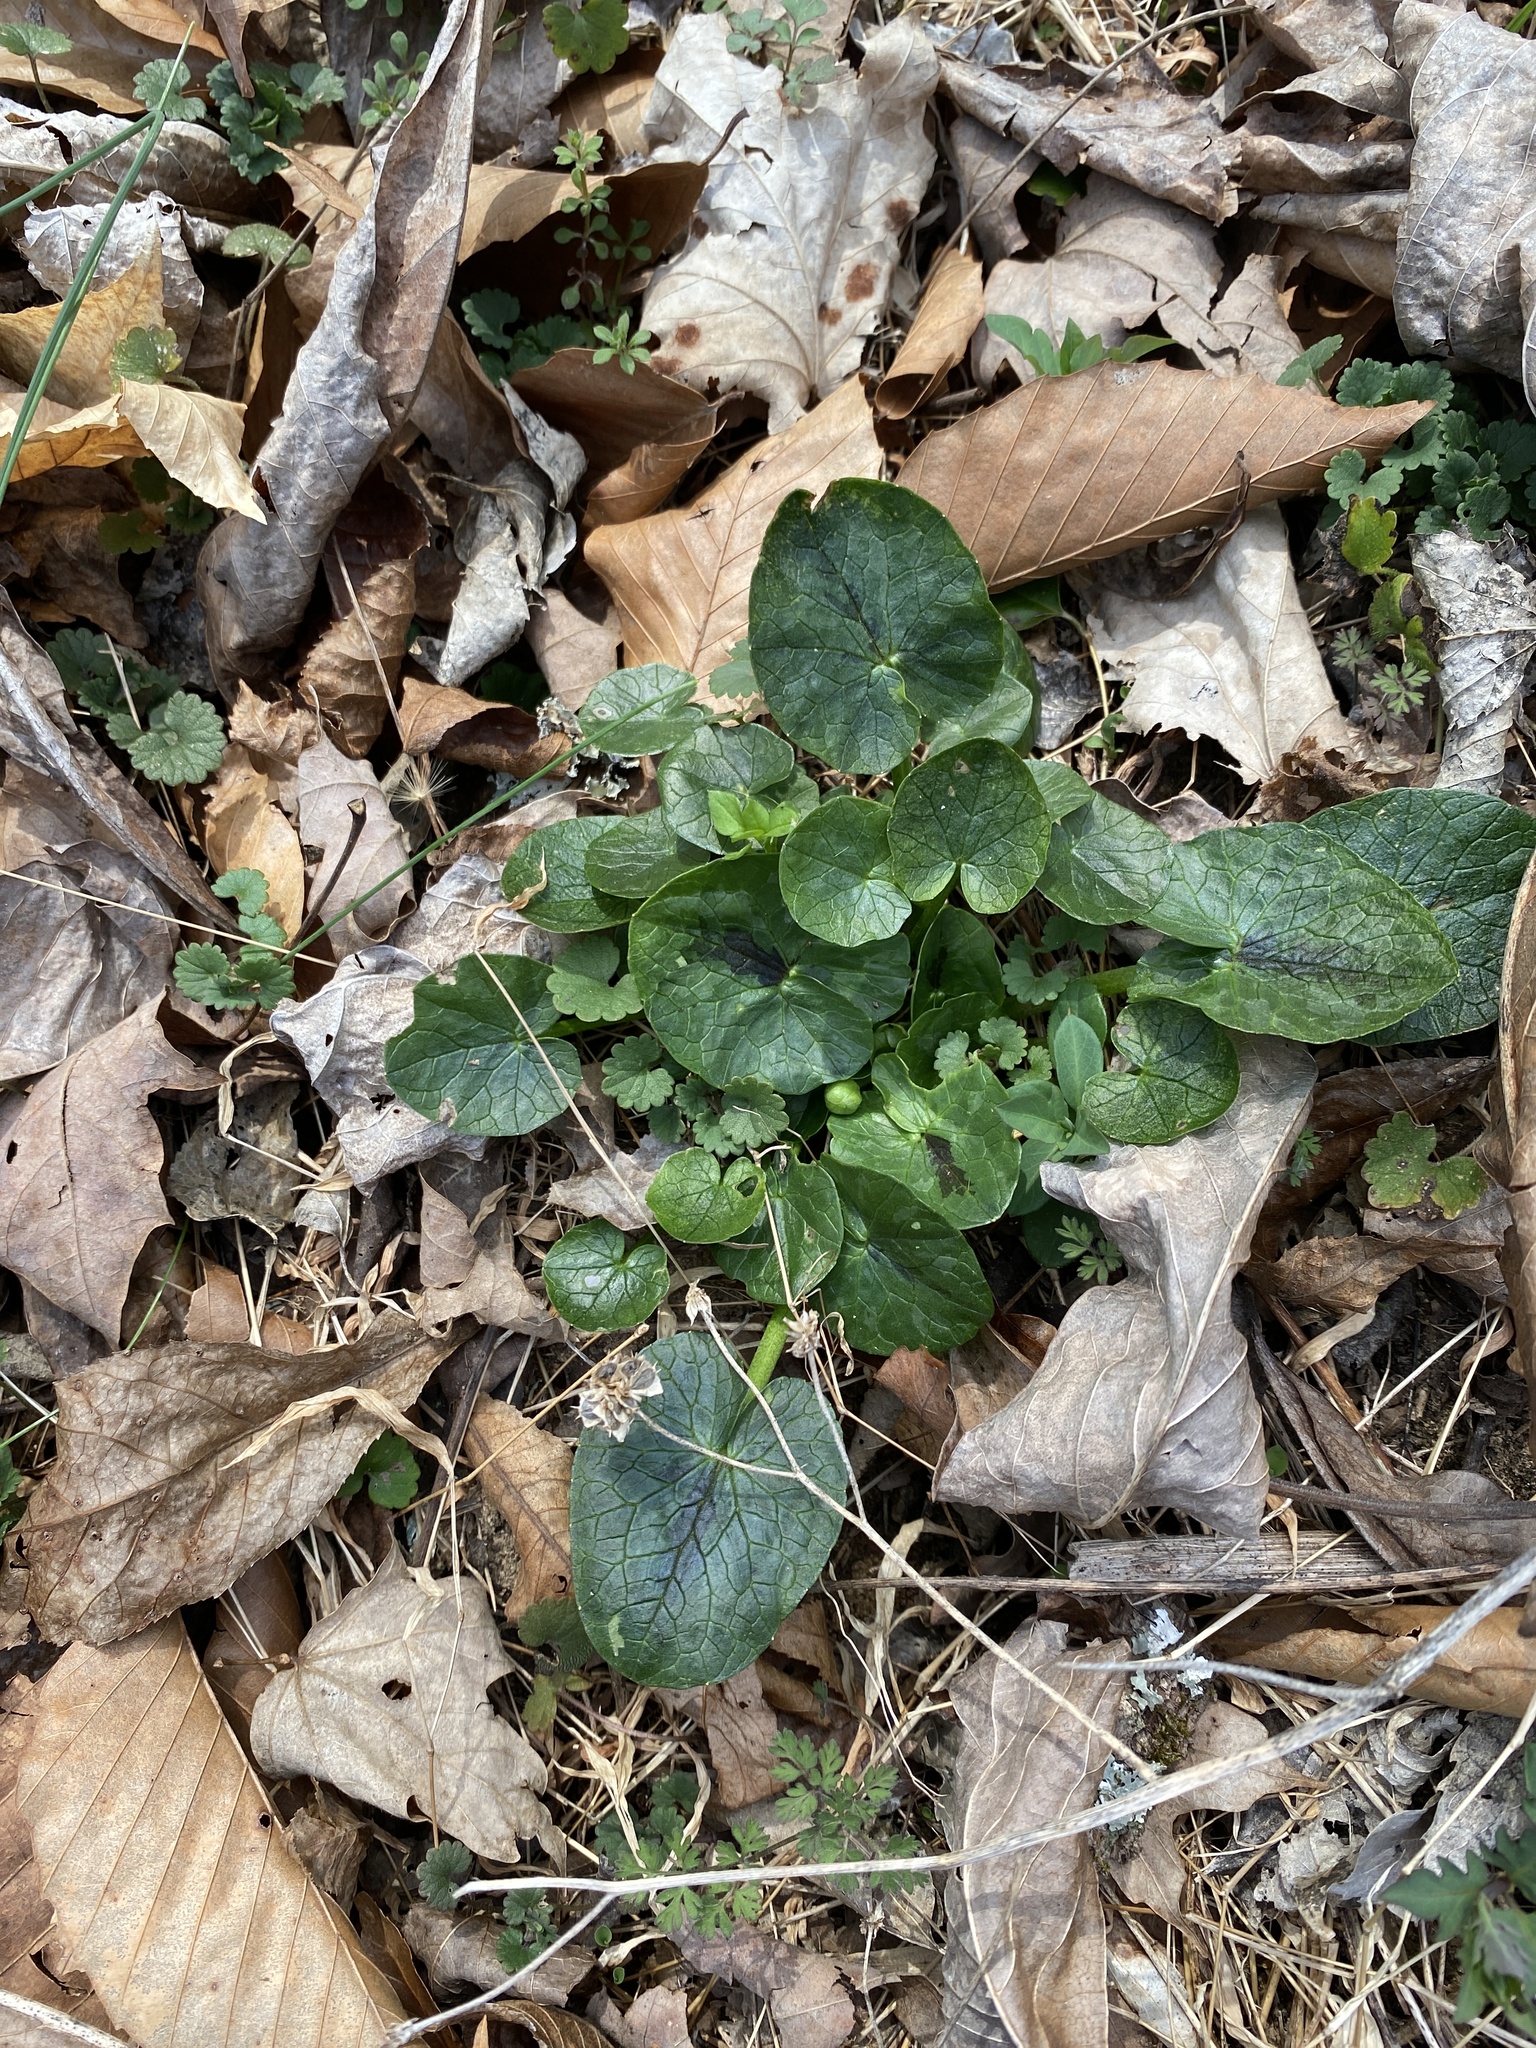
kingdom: Plantae
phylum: Tracheophyta
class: Magnoliopsida
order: Ranunculales
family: Ranunculaceae
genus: Ficaria
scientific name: Ficaria verna
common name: Lesser celandine
